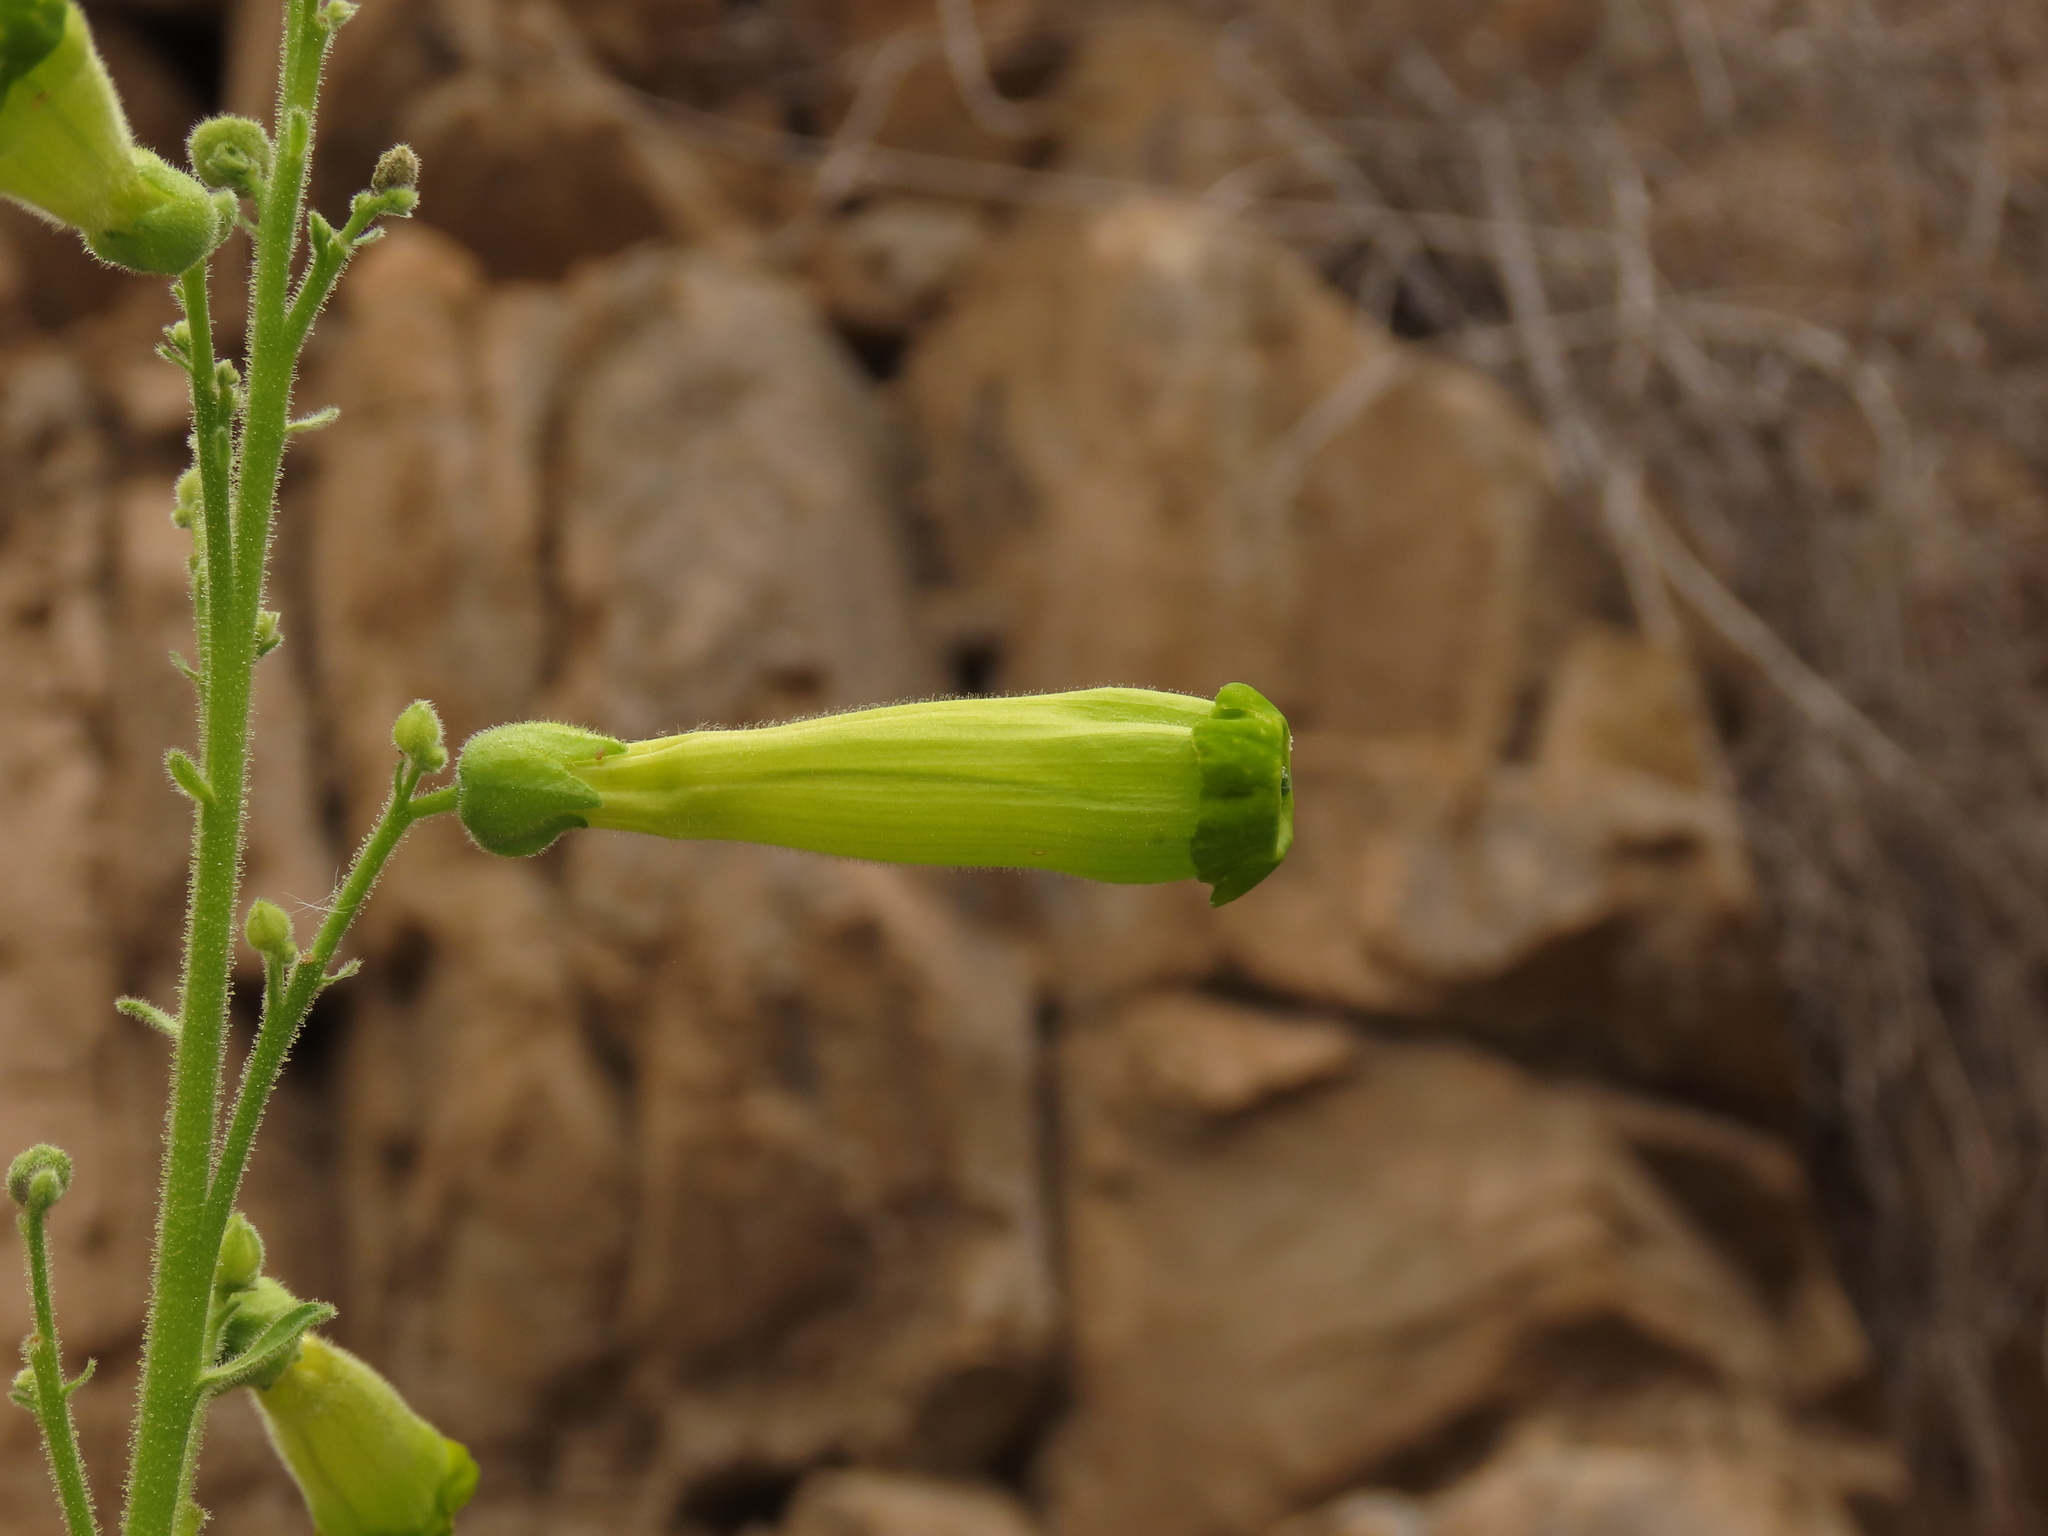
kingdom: Plantae
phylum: Tracheophyta
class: Magnoliopsida
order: Solanales
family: Solanaceae
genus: Nicotiana
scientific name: Nicotiana solanifolia
